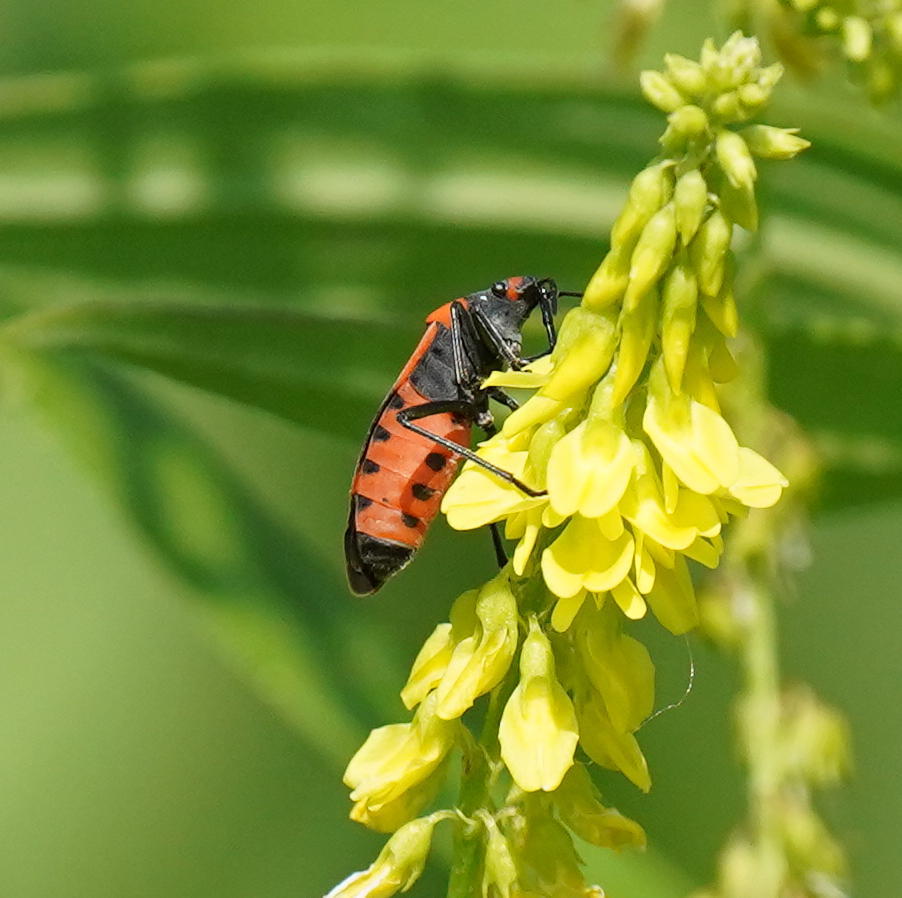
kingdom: Animalia
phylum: Arthropoda
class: Insecta
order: Hemiptera
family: Lygaeidae
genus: Lygaeus
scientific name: Lygaeus turcicus
